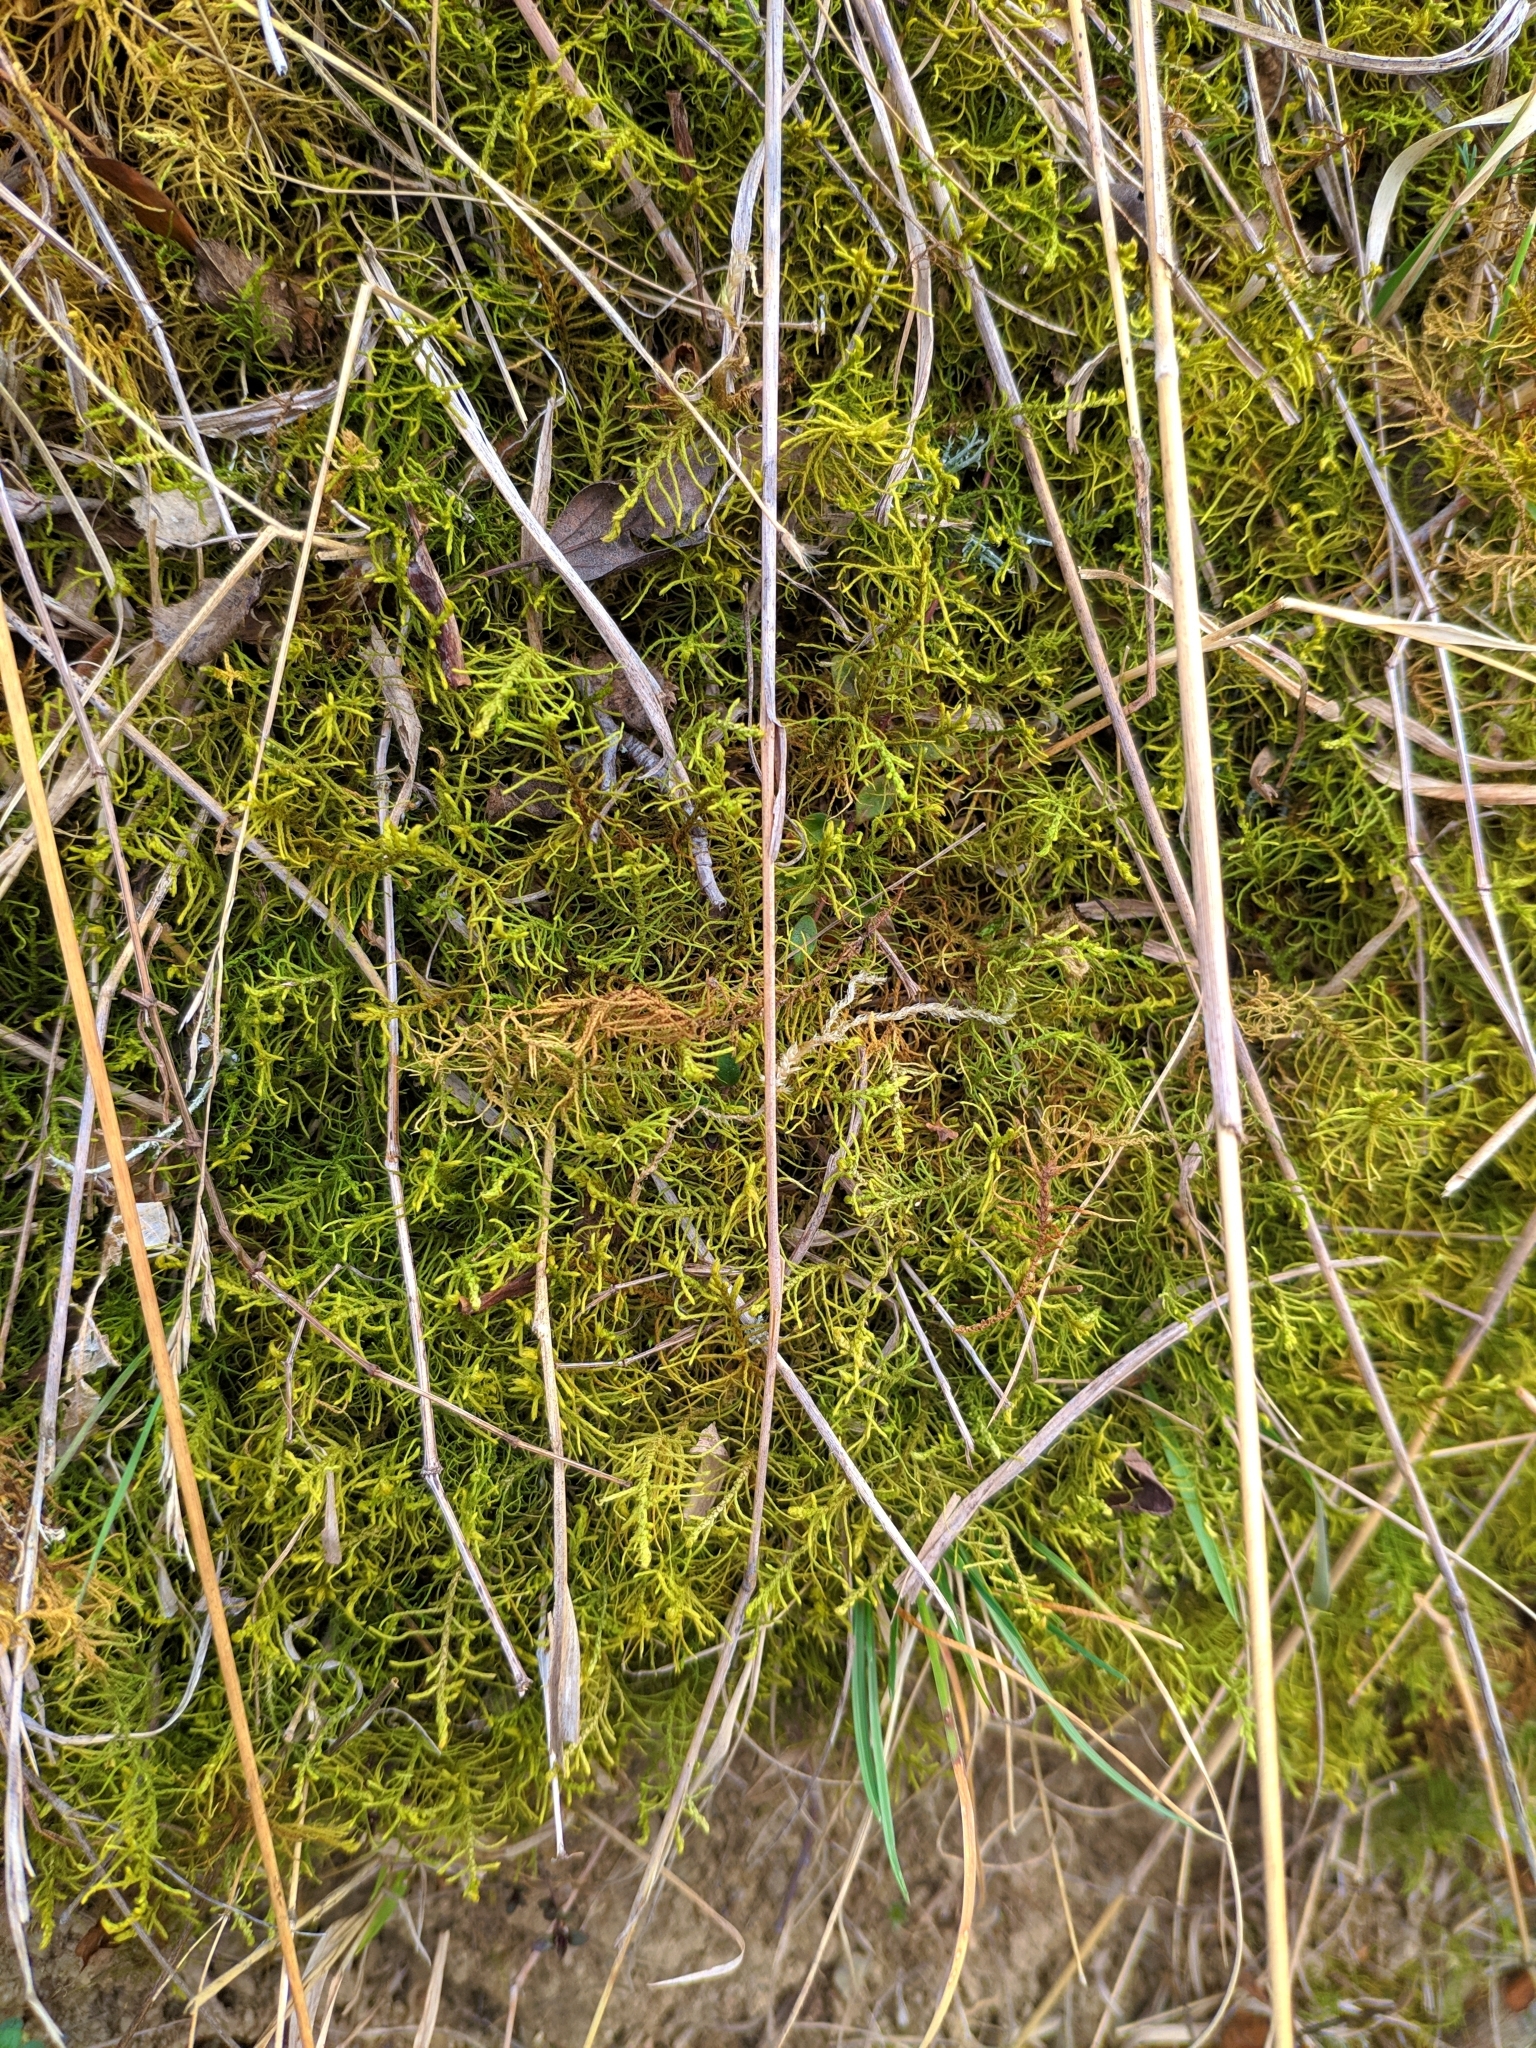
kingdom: Plantae
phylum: Bryophyta
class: Bryopsida
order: Hypnales
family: Thuidiaceae
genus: Abietinella
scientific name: Abietinella abietina
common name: Wiry fern moss
